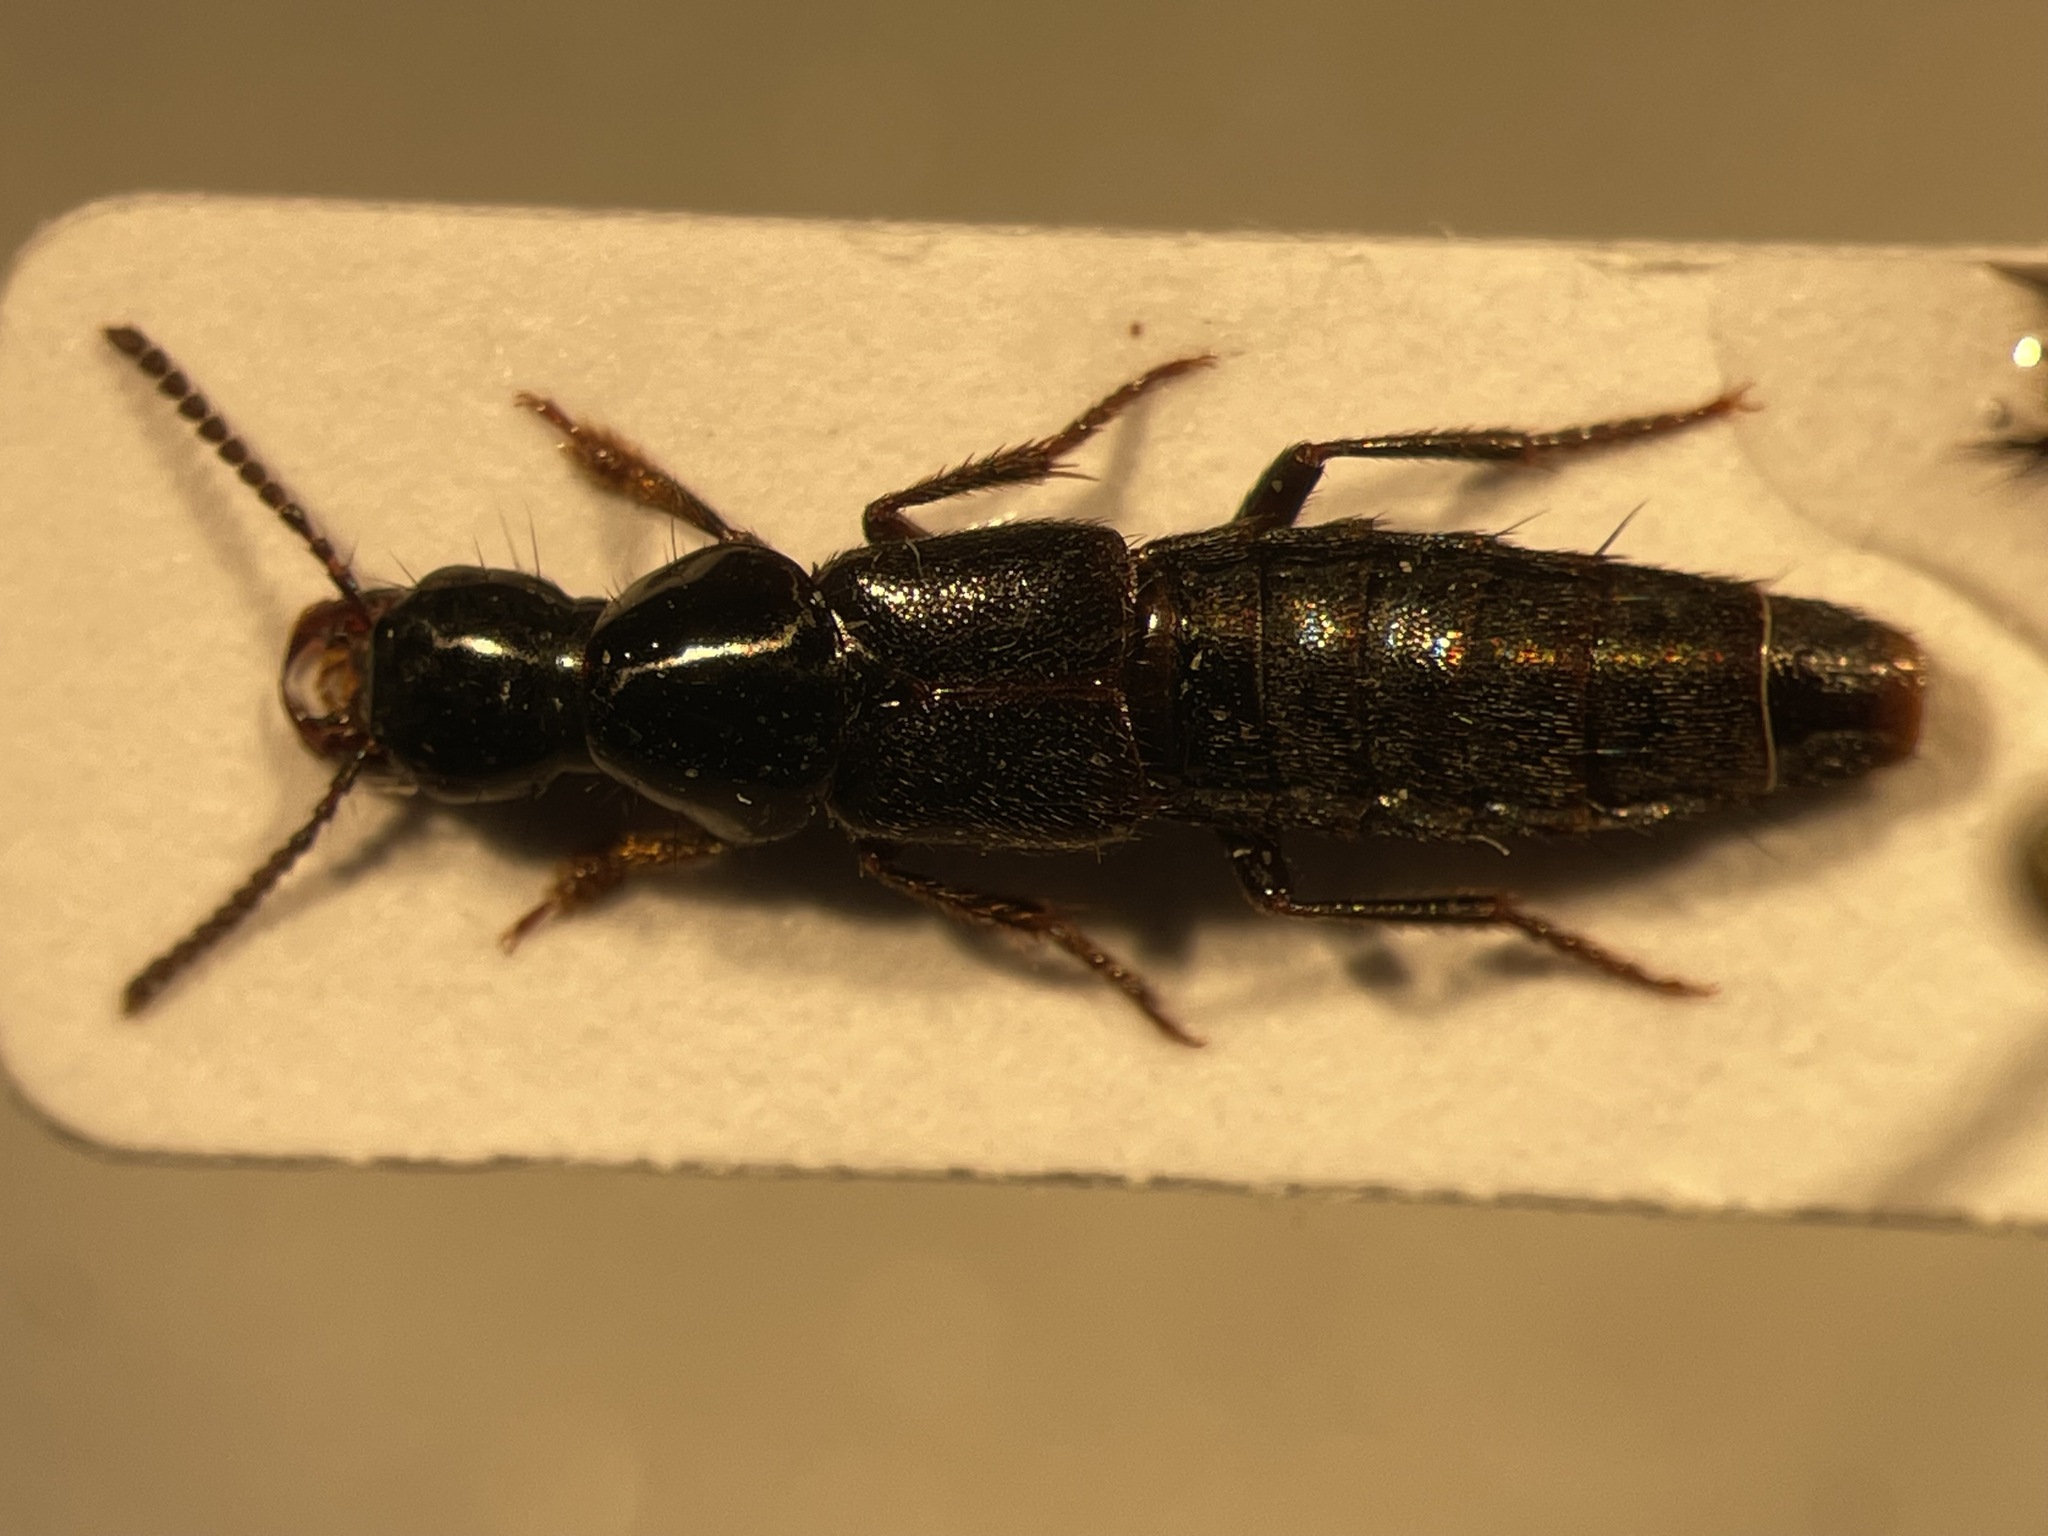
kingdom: Animalia
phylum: Arthropoda
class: Insecta
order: Coleoptera
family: Staphylinidae
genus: Quedius
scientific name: Quedius mesomelinus
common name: Staph beetle
